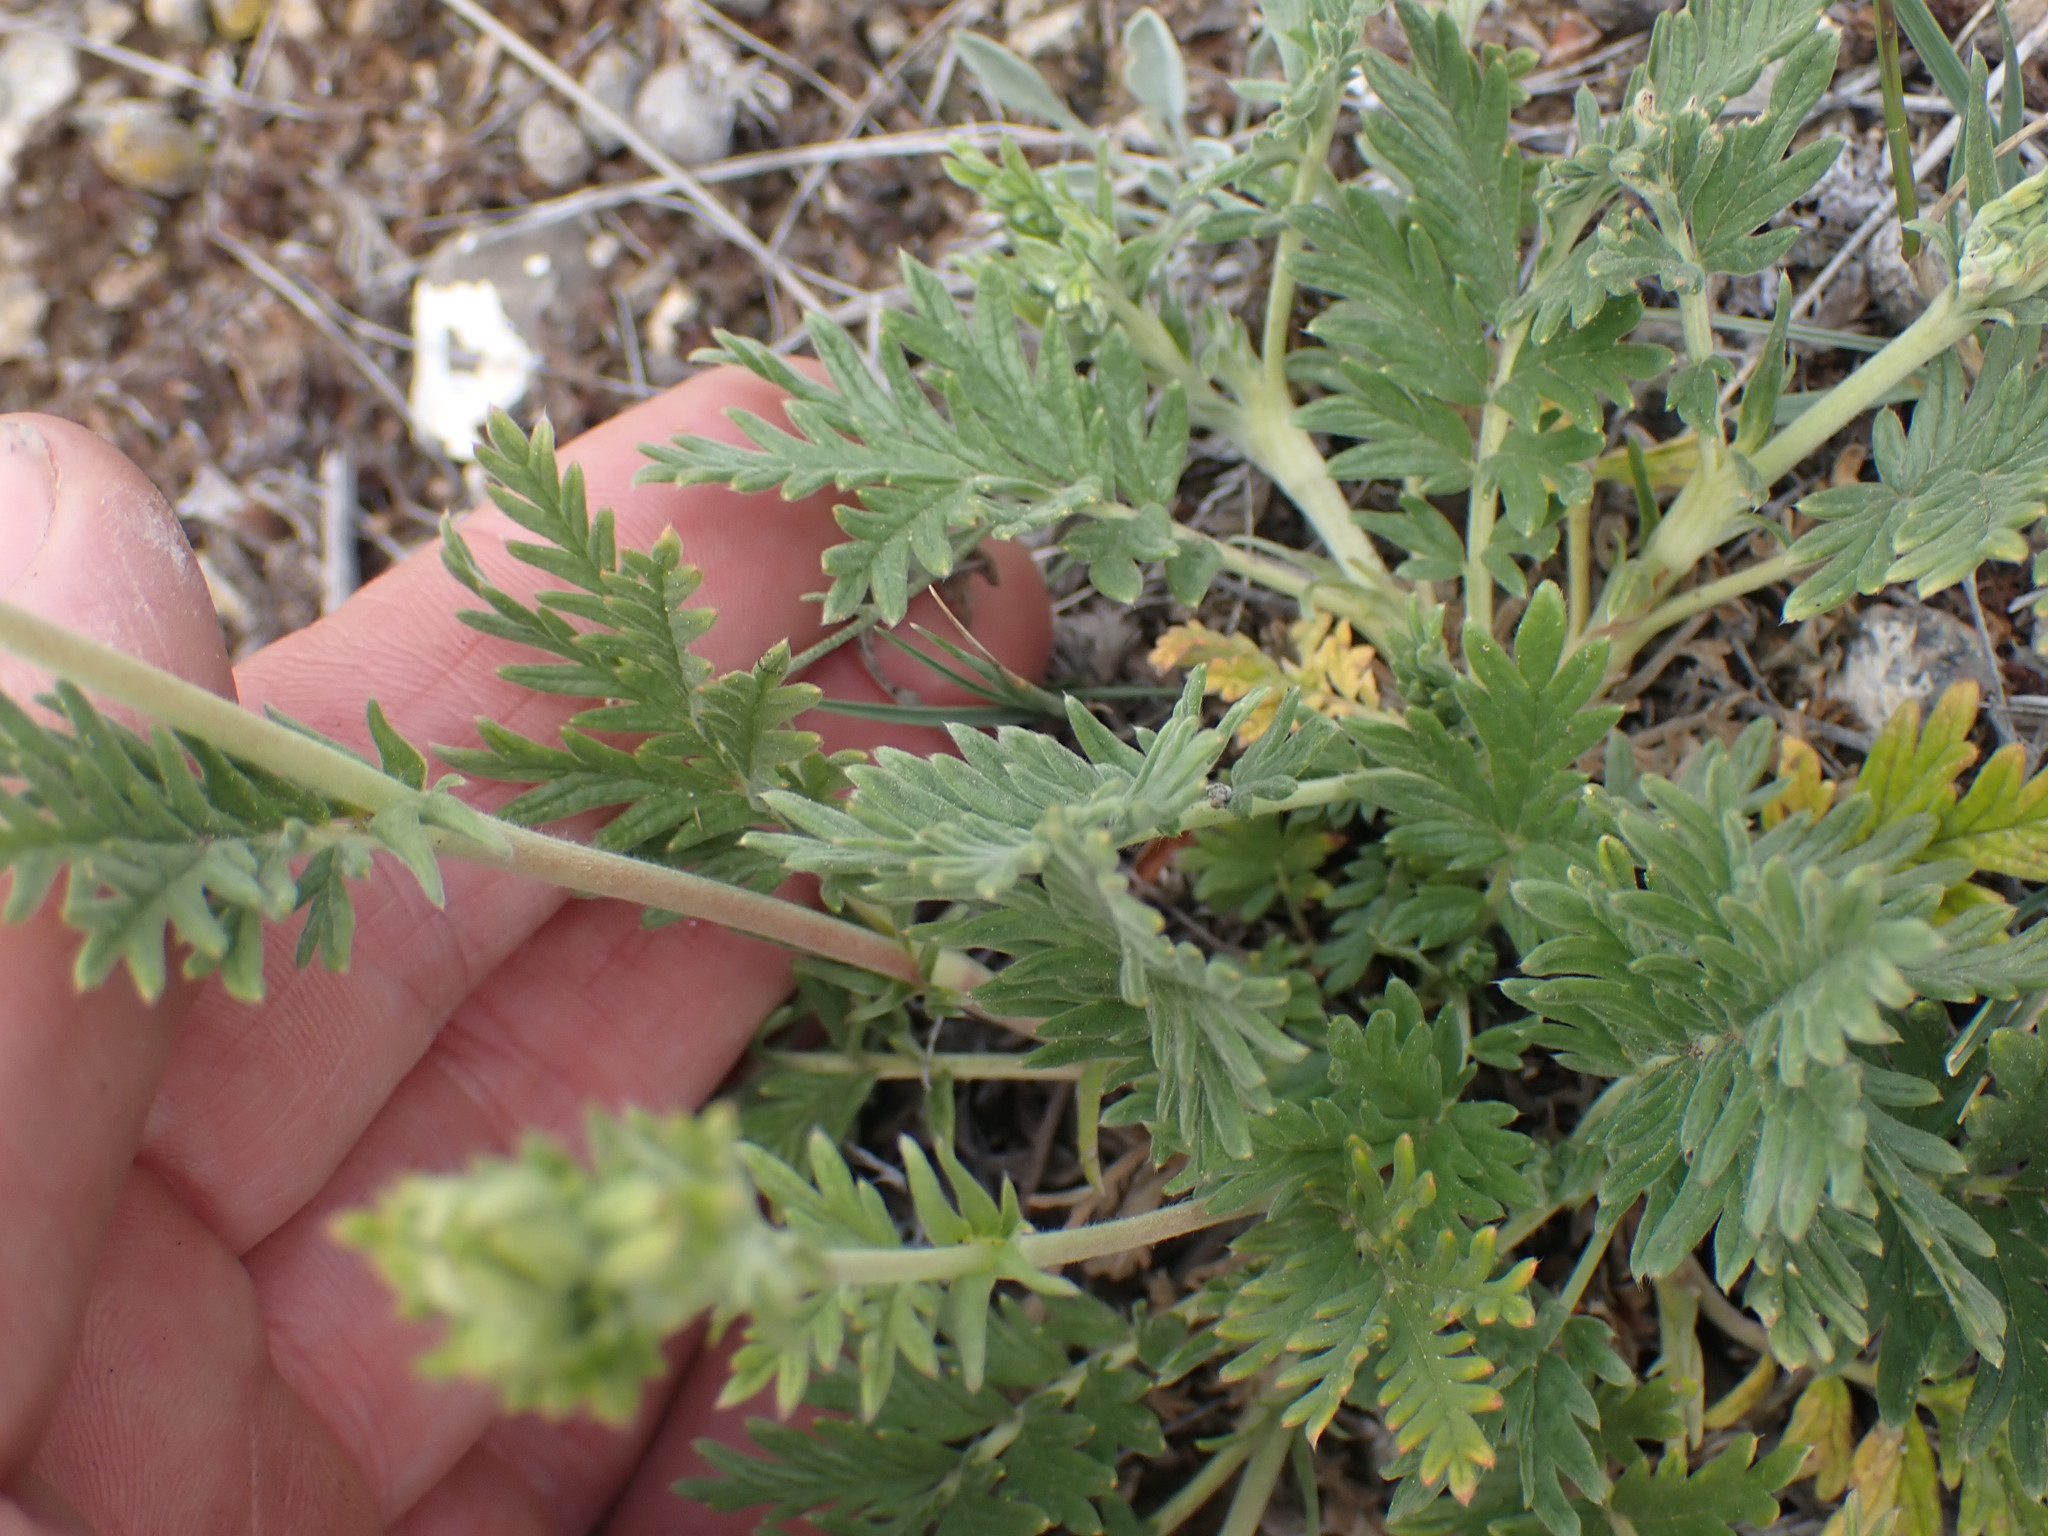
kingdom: Plantae
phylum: Tracheophyta
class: Magnoliopsida
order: Rosales
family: Rosaceae
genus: Potentilla
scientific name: Potentilla pensylvanica
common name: Pennsylvania cinquefoil
